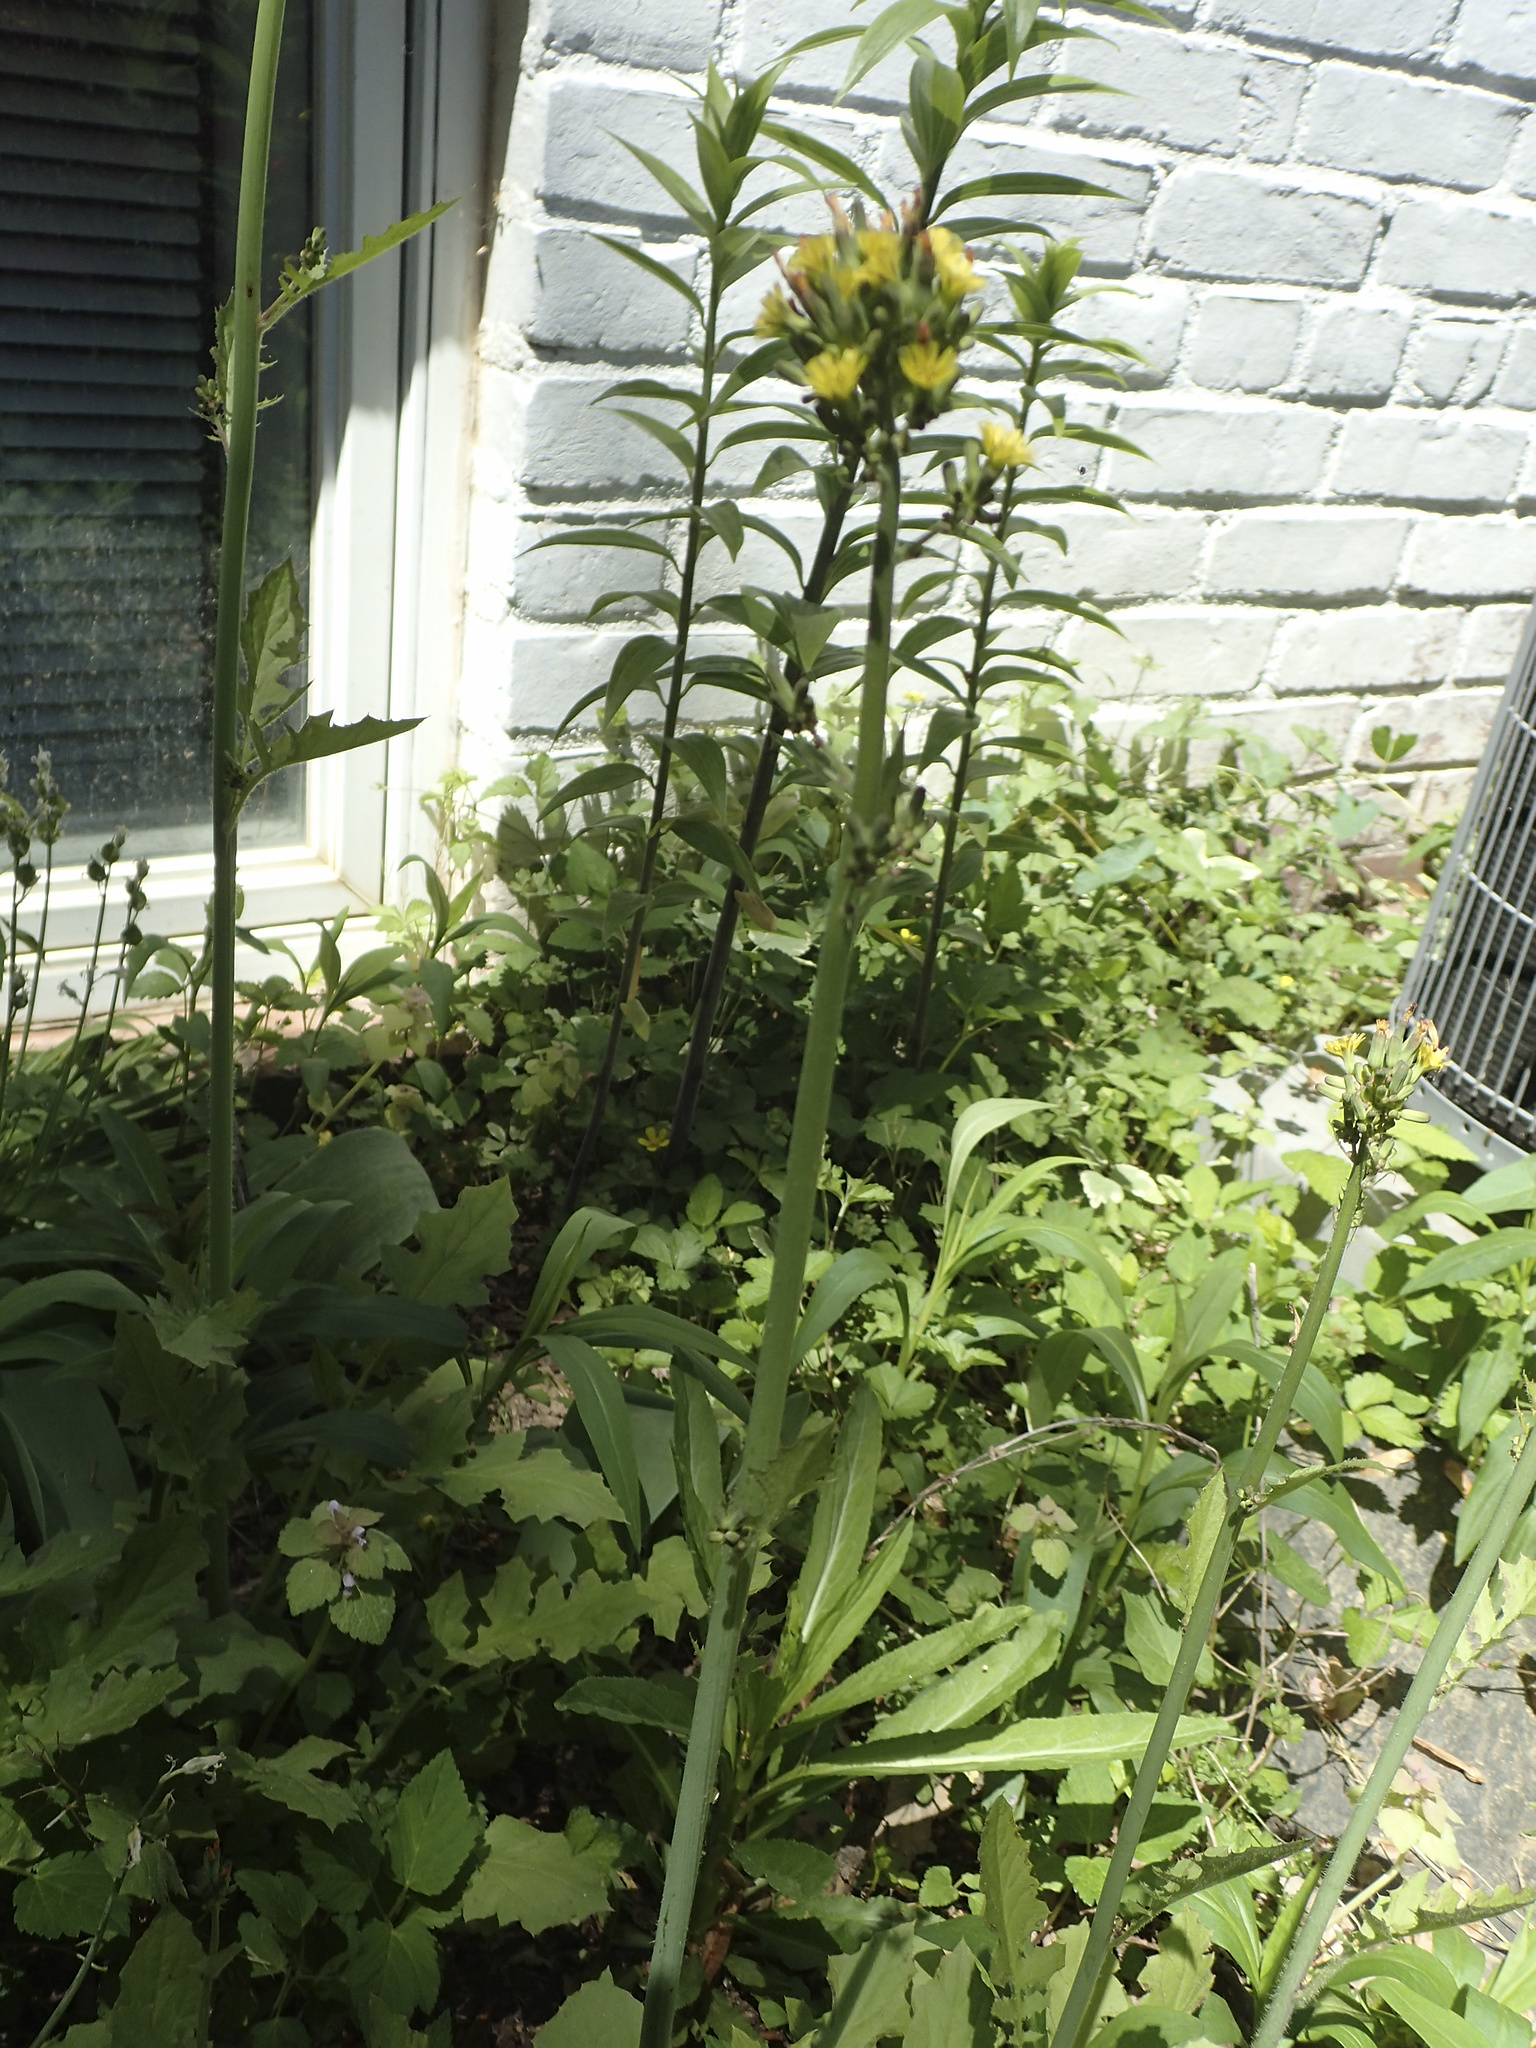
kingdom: Plantae
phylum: Tracheophyta
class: Magnoliopsida
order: Asterales
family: Asteraceae
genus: Youngia
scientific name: Youngia japonica
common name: Oriental false hawksbeard
